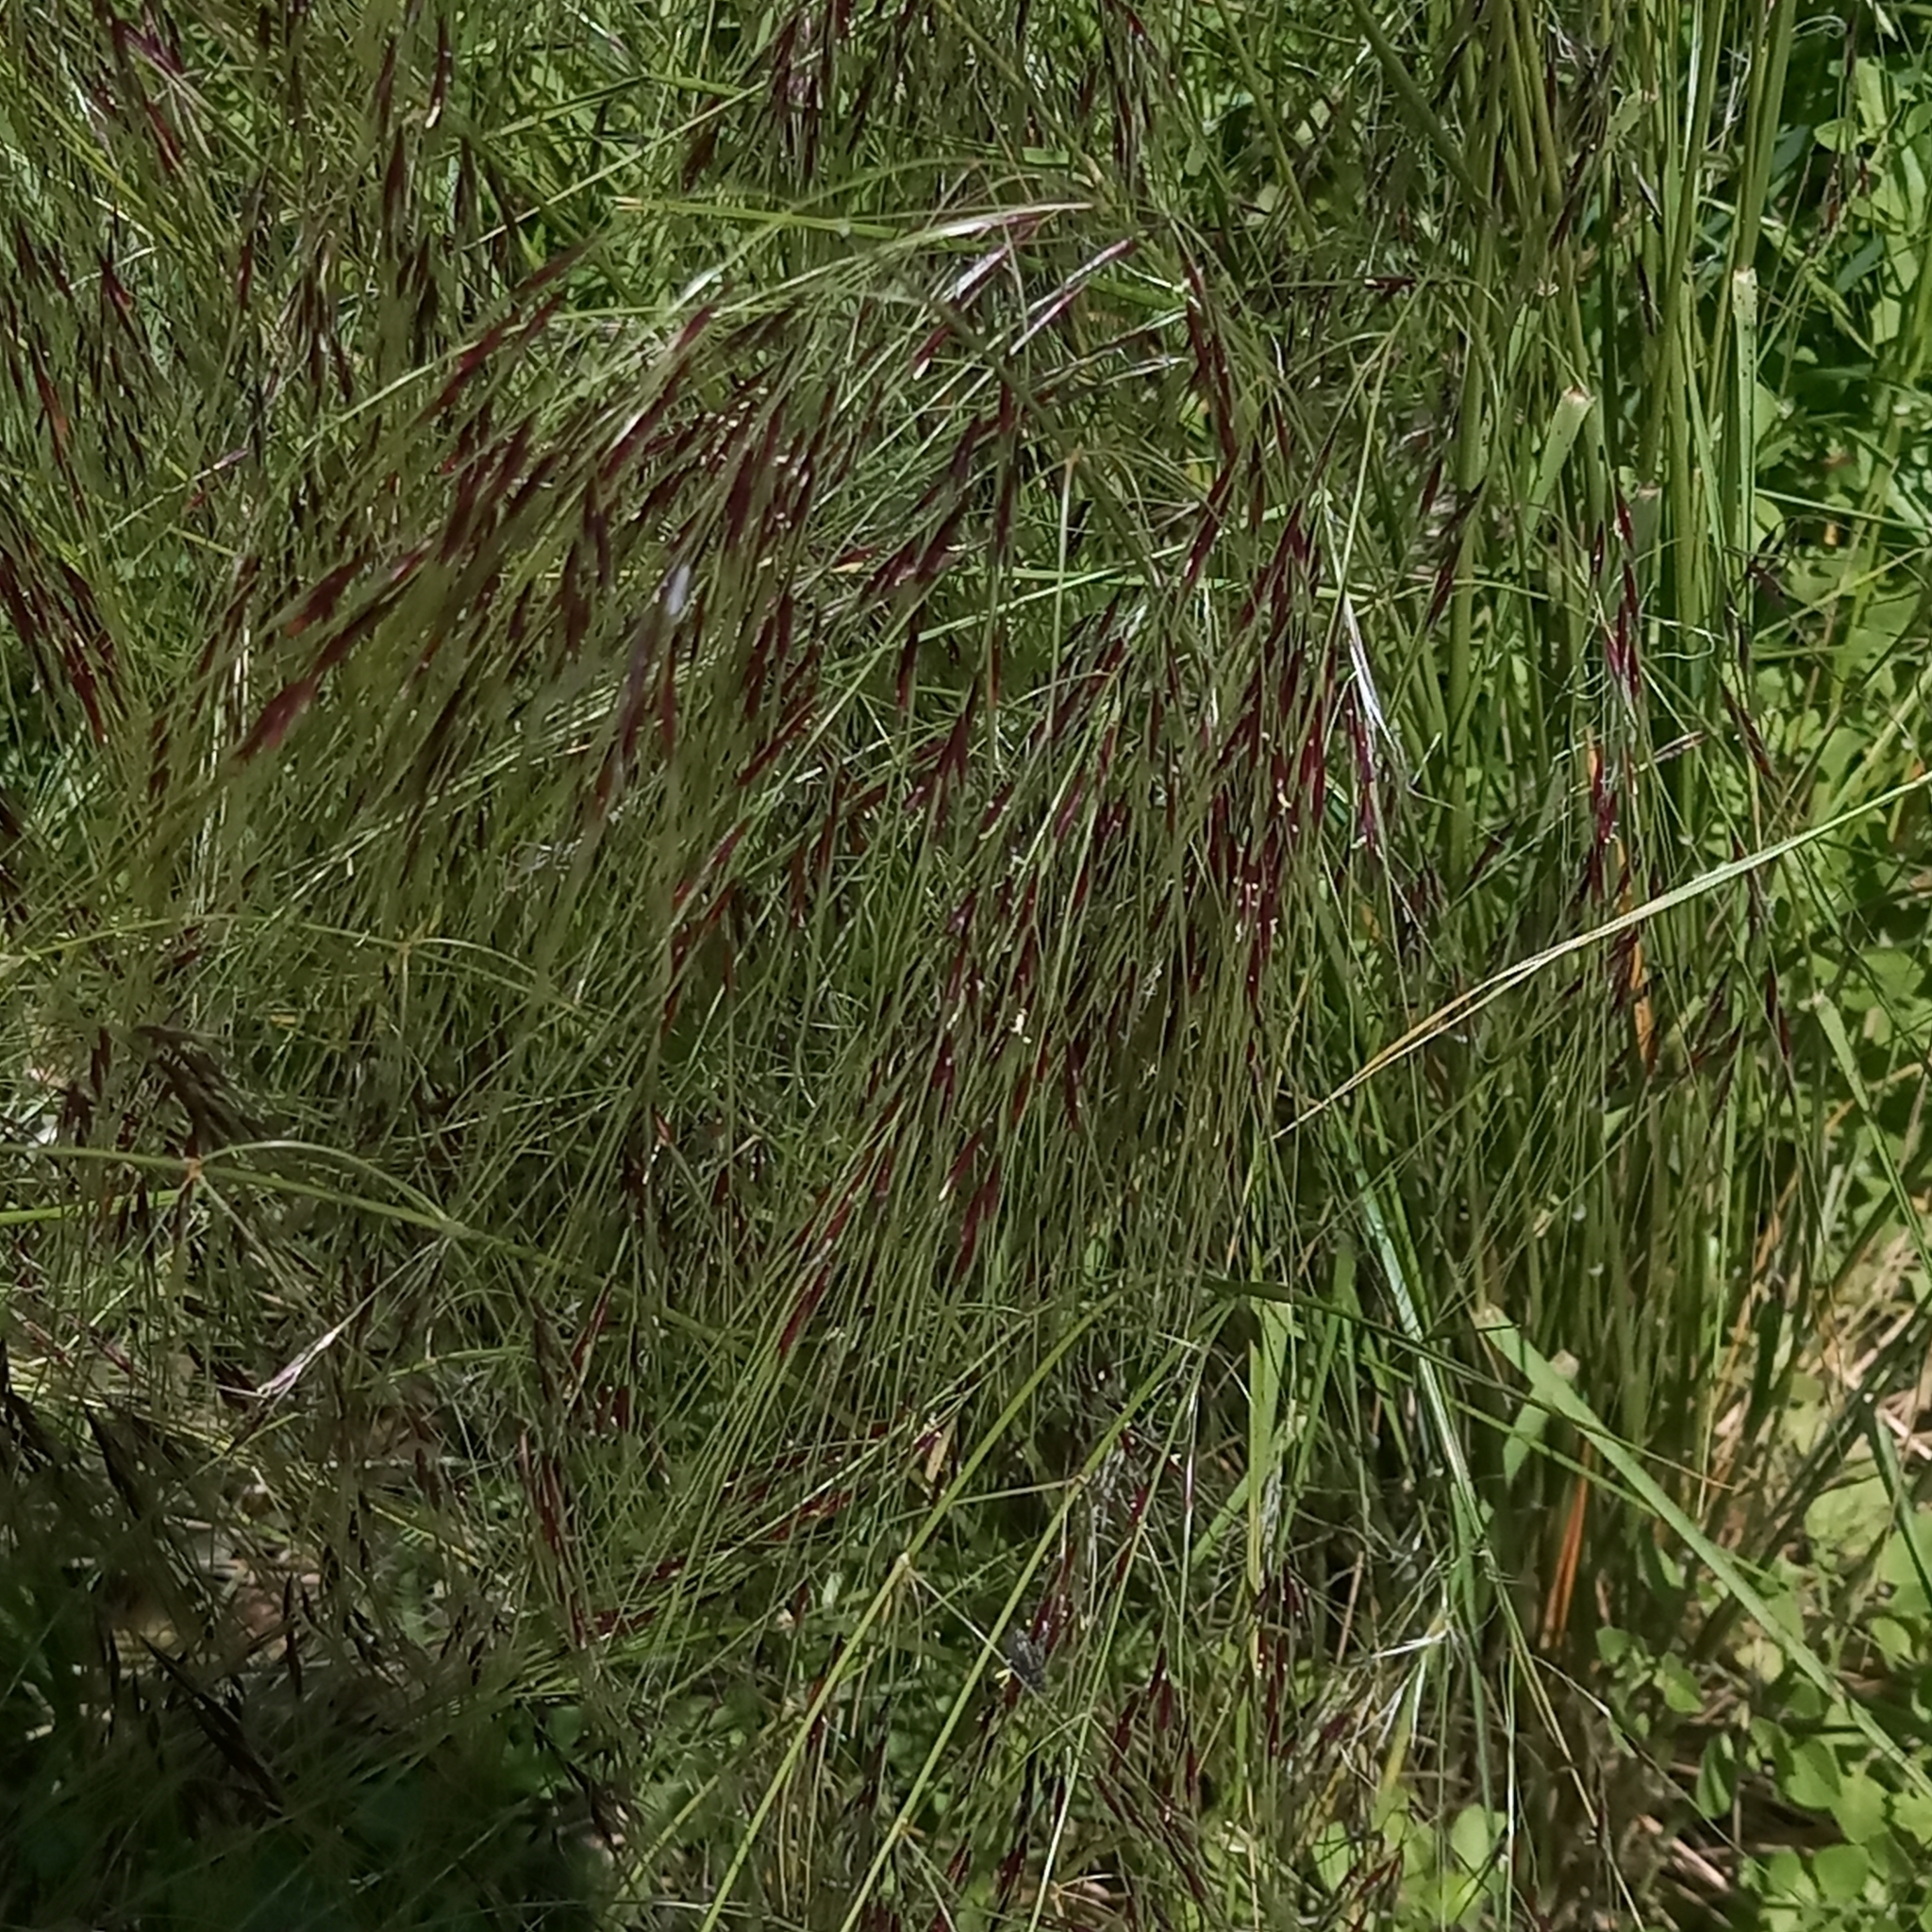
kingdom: Plantae
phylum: Tracheophyta
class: Liliopsida
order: Poales
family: Poaceae
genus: Nassella
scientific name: Nassella neesiana
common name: American needle-grass
